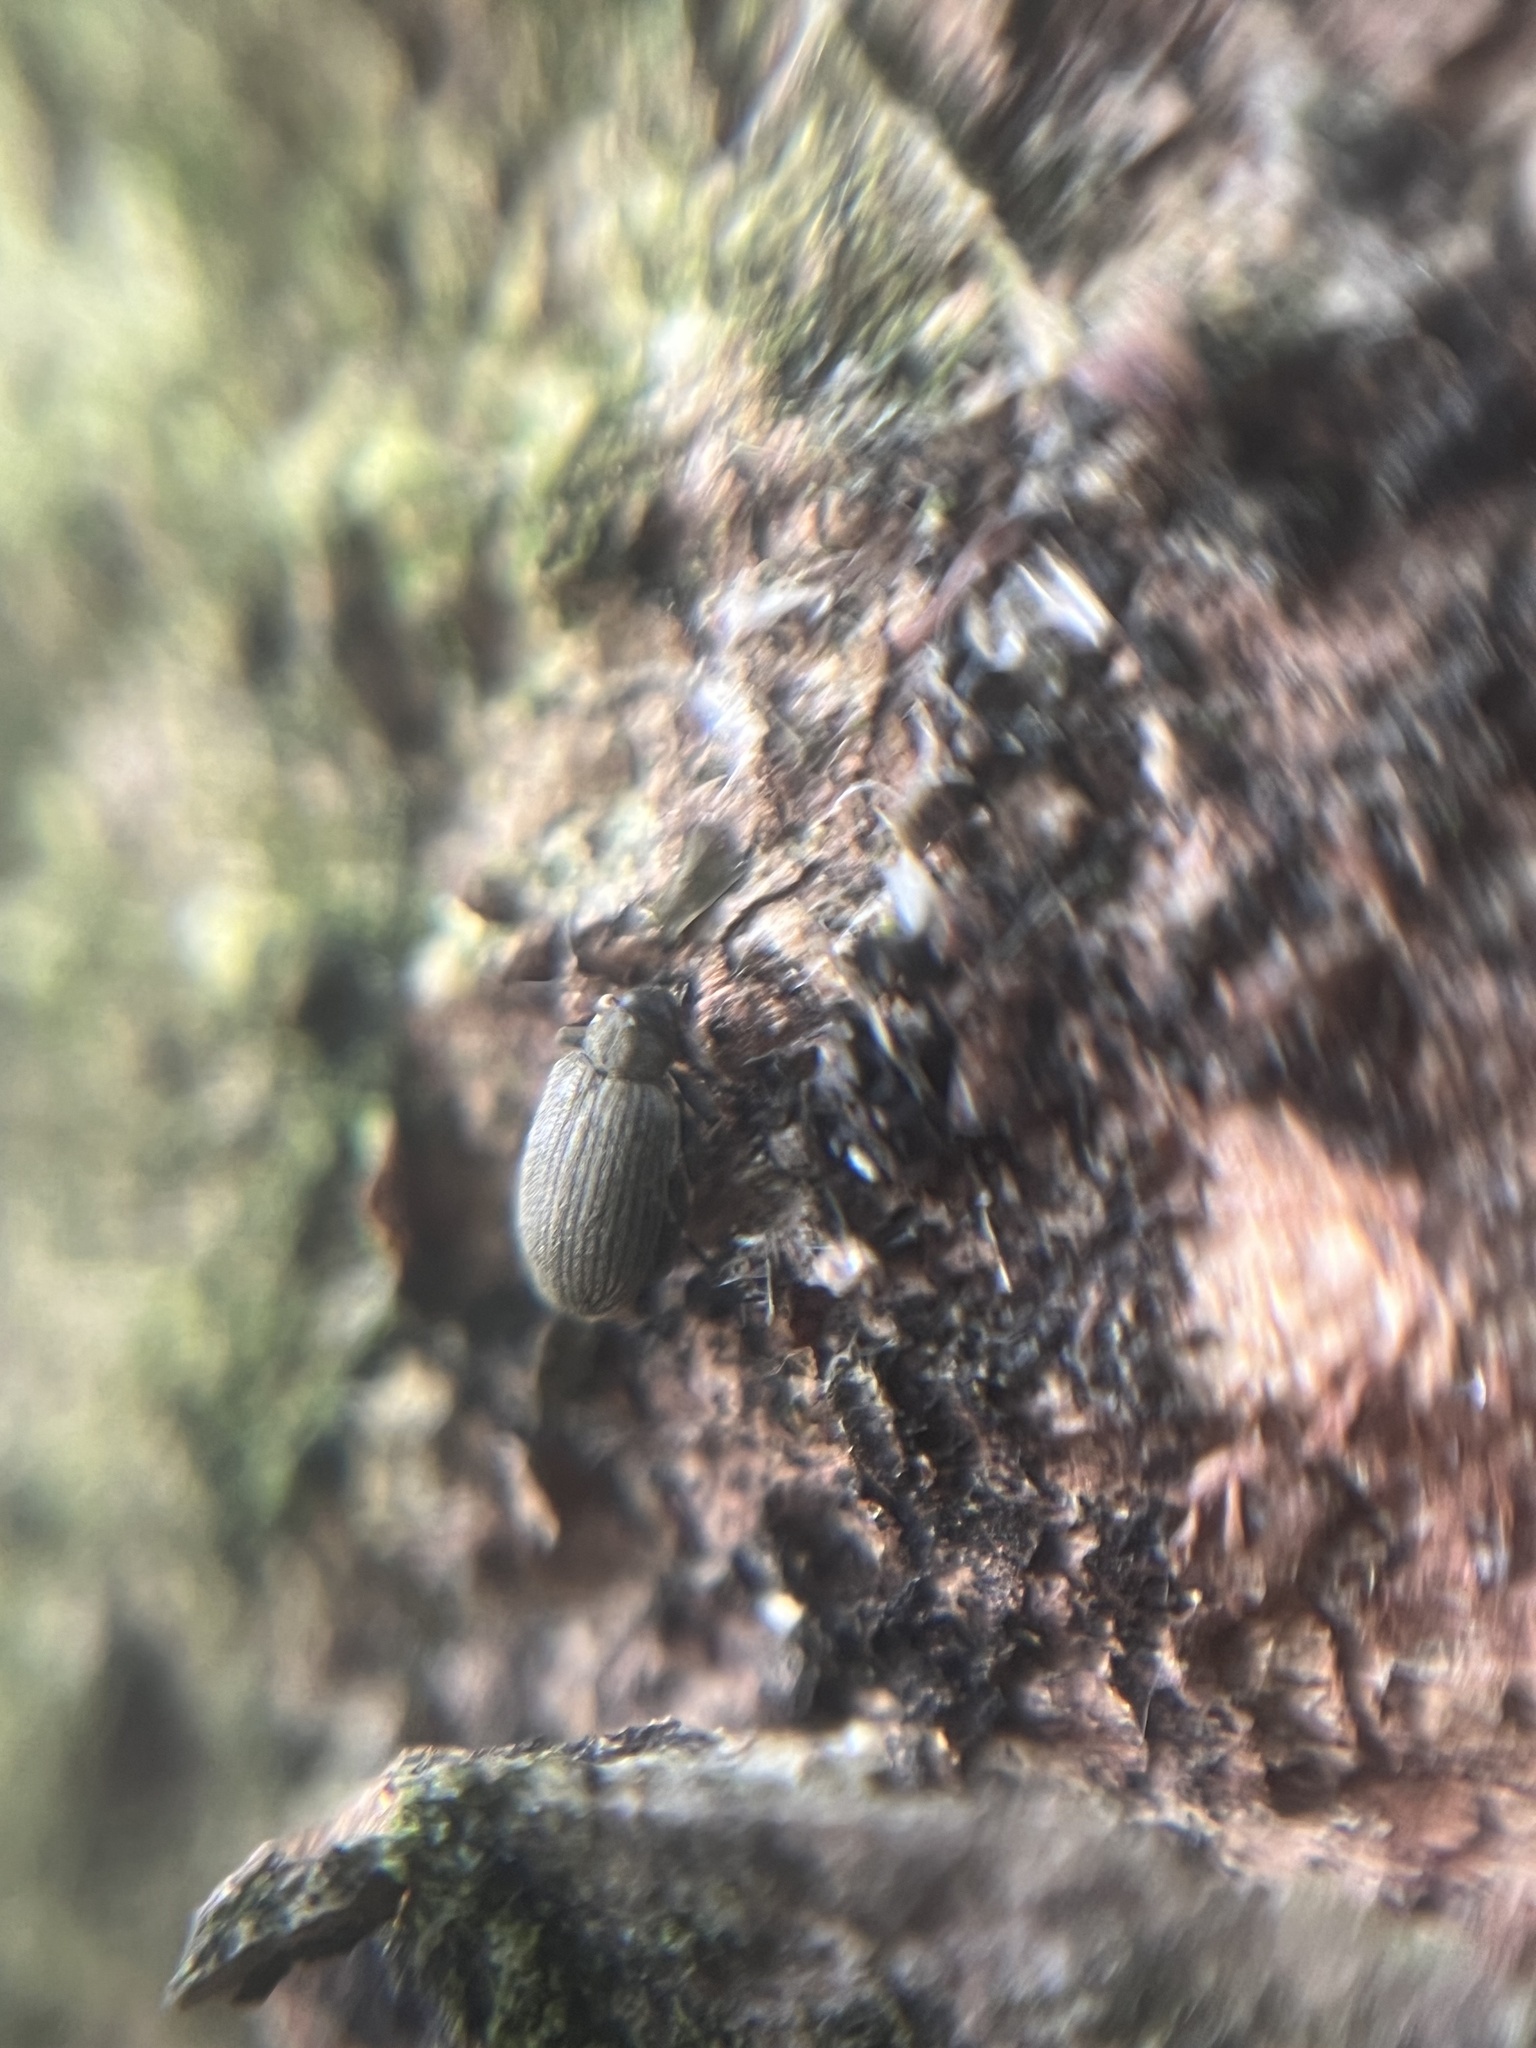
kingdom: Animalia
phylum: Arthropoda
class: Insecta
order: Coleoptera
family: Curculionidae
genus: Orchestes
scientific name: Orchestes fagi
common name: Beech leaf miner
